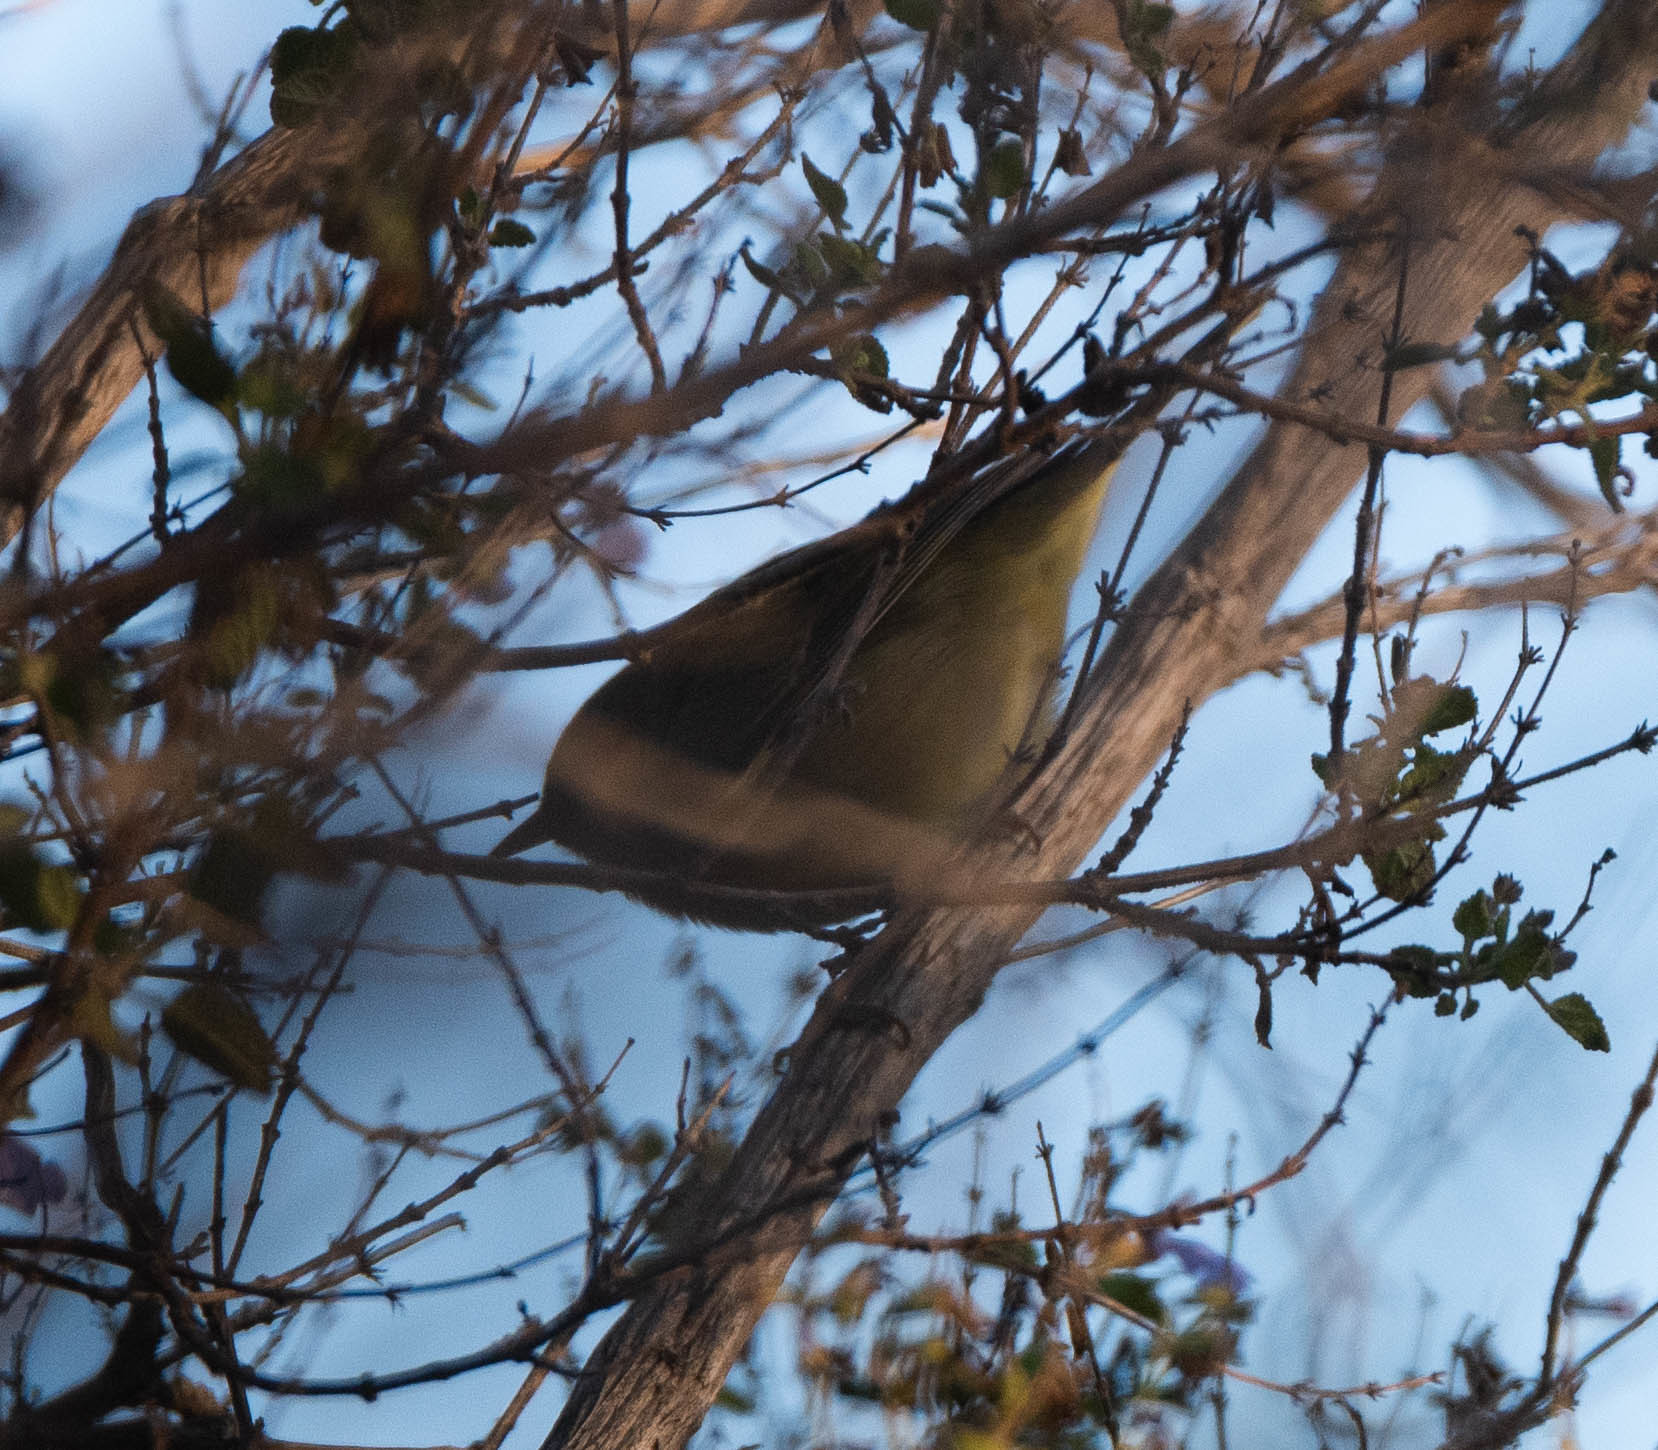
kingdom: Animalia
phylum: Chordata
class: Aves
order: Passeriformes
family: Parulidae
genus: Leiothlypis
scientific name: Leiothlypis celata
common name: Orange-crowned warbler
